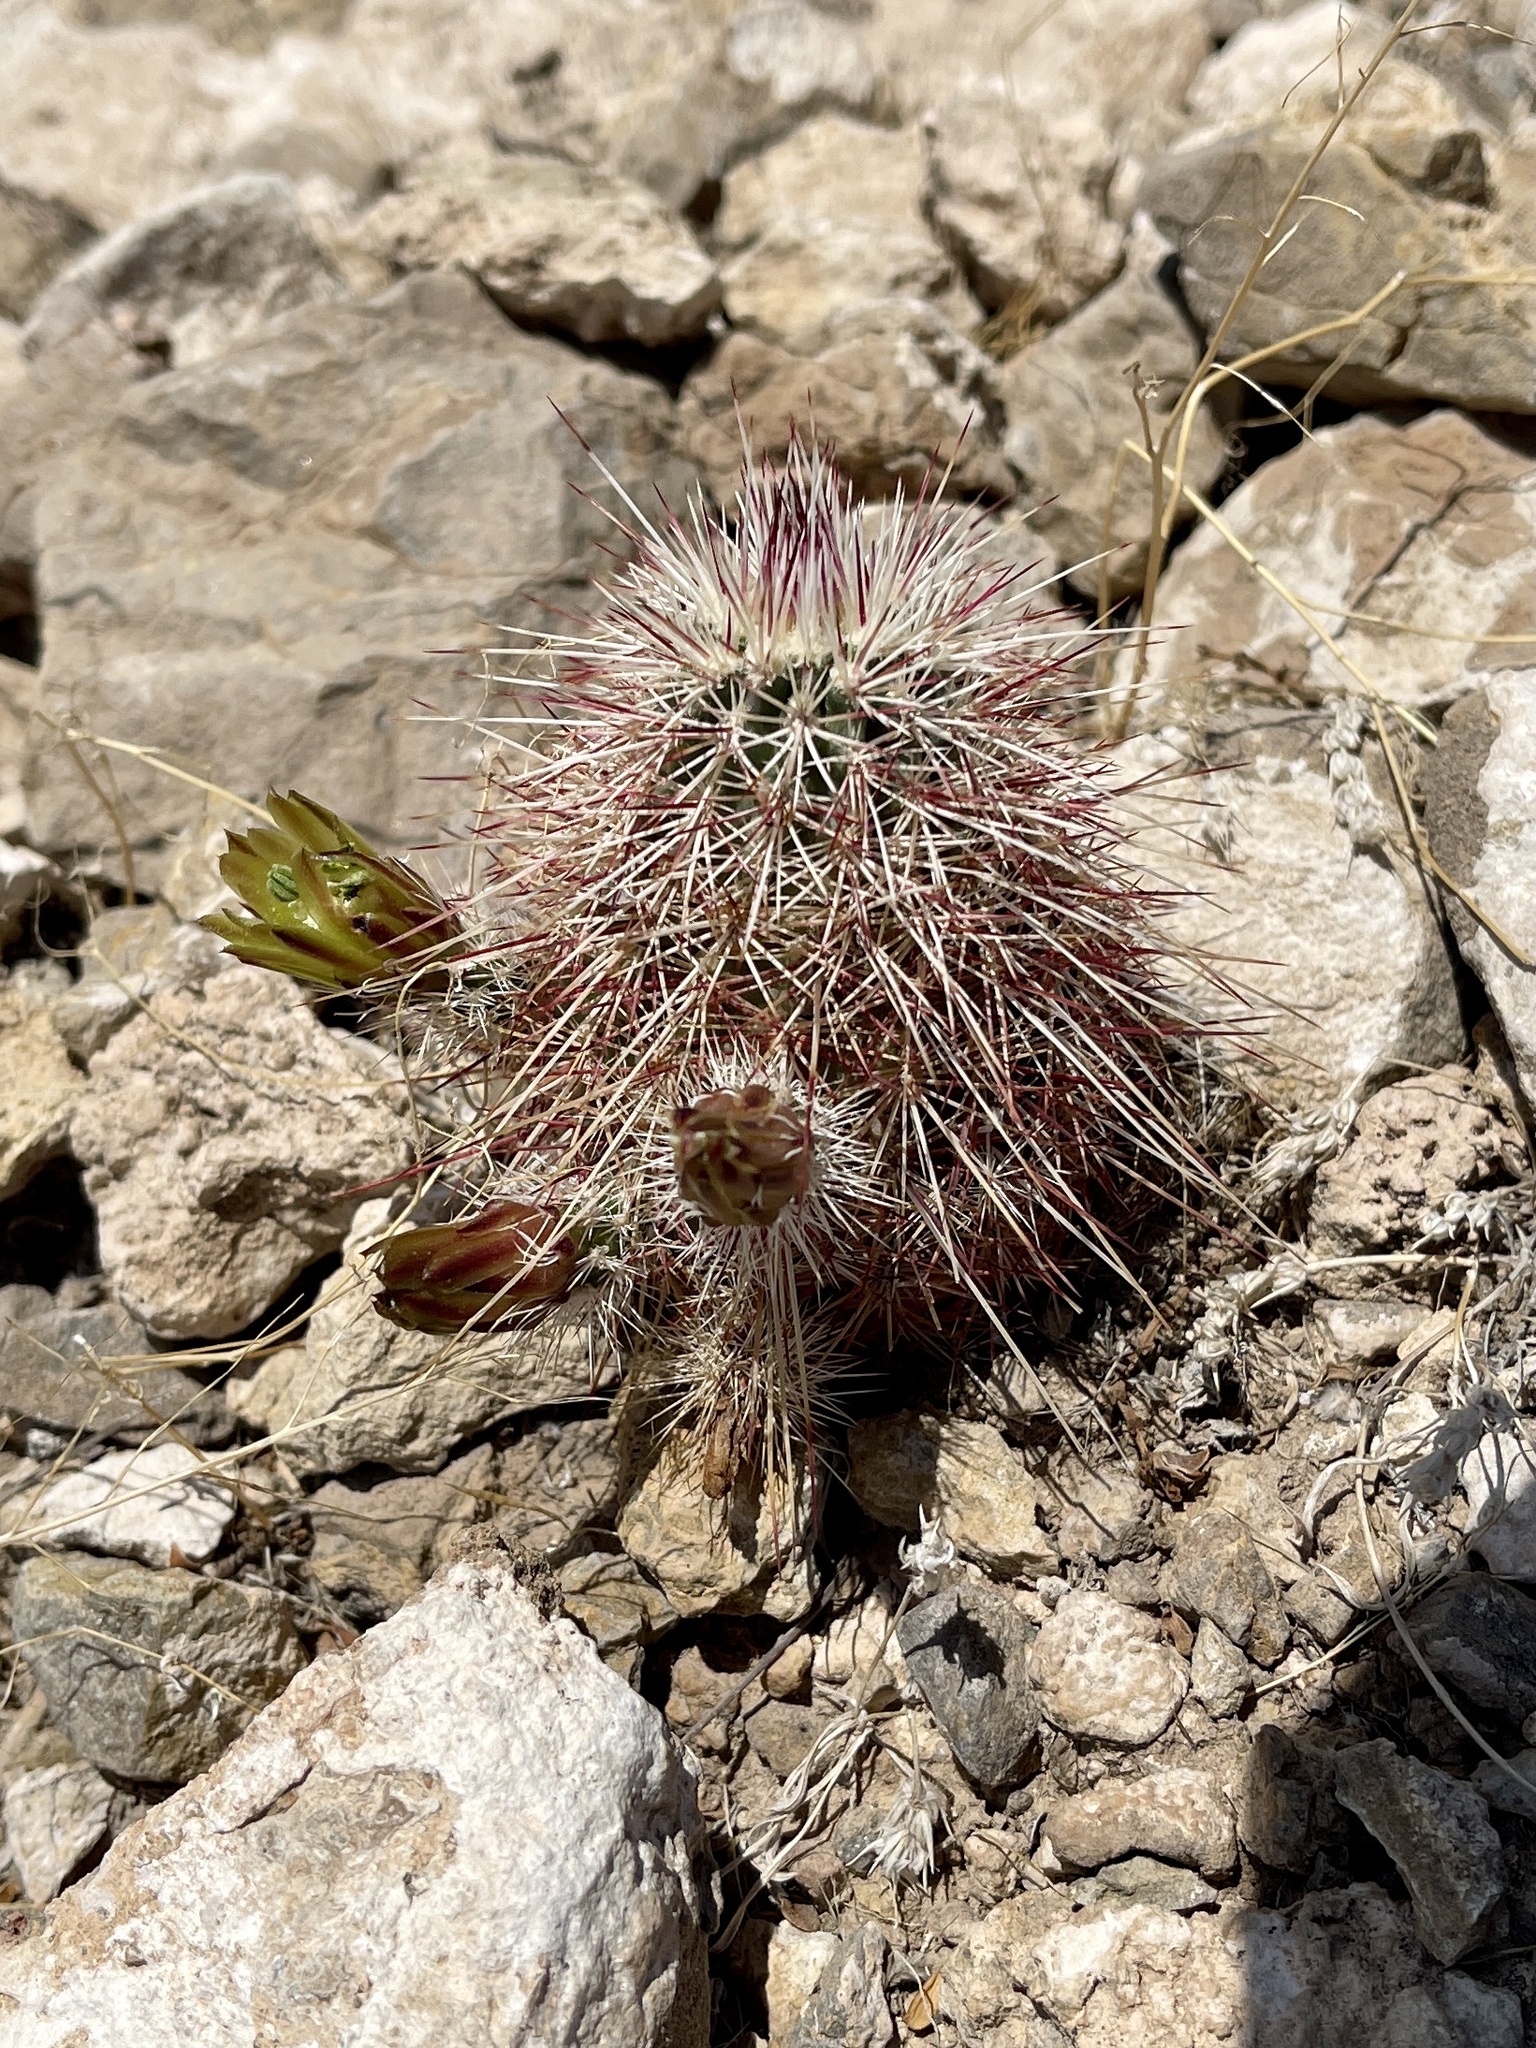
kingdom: Plantae
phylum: Tracheophyta
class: Magnoliopsida
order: Caryophyllales
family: Cactaceae
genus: Echinocereus
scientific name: Echinocereus viridiflorus
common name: Nylon hedgehog cactus
